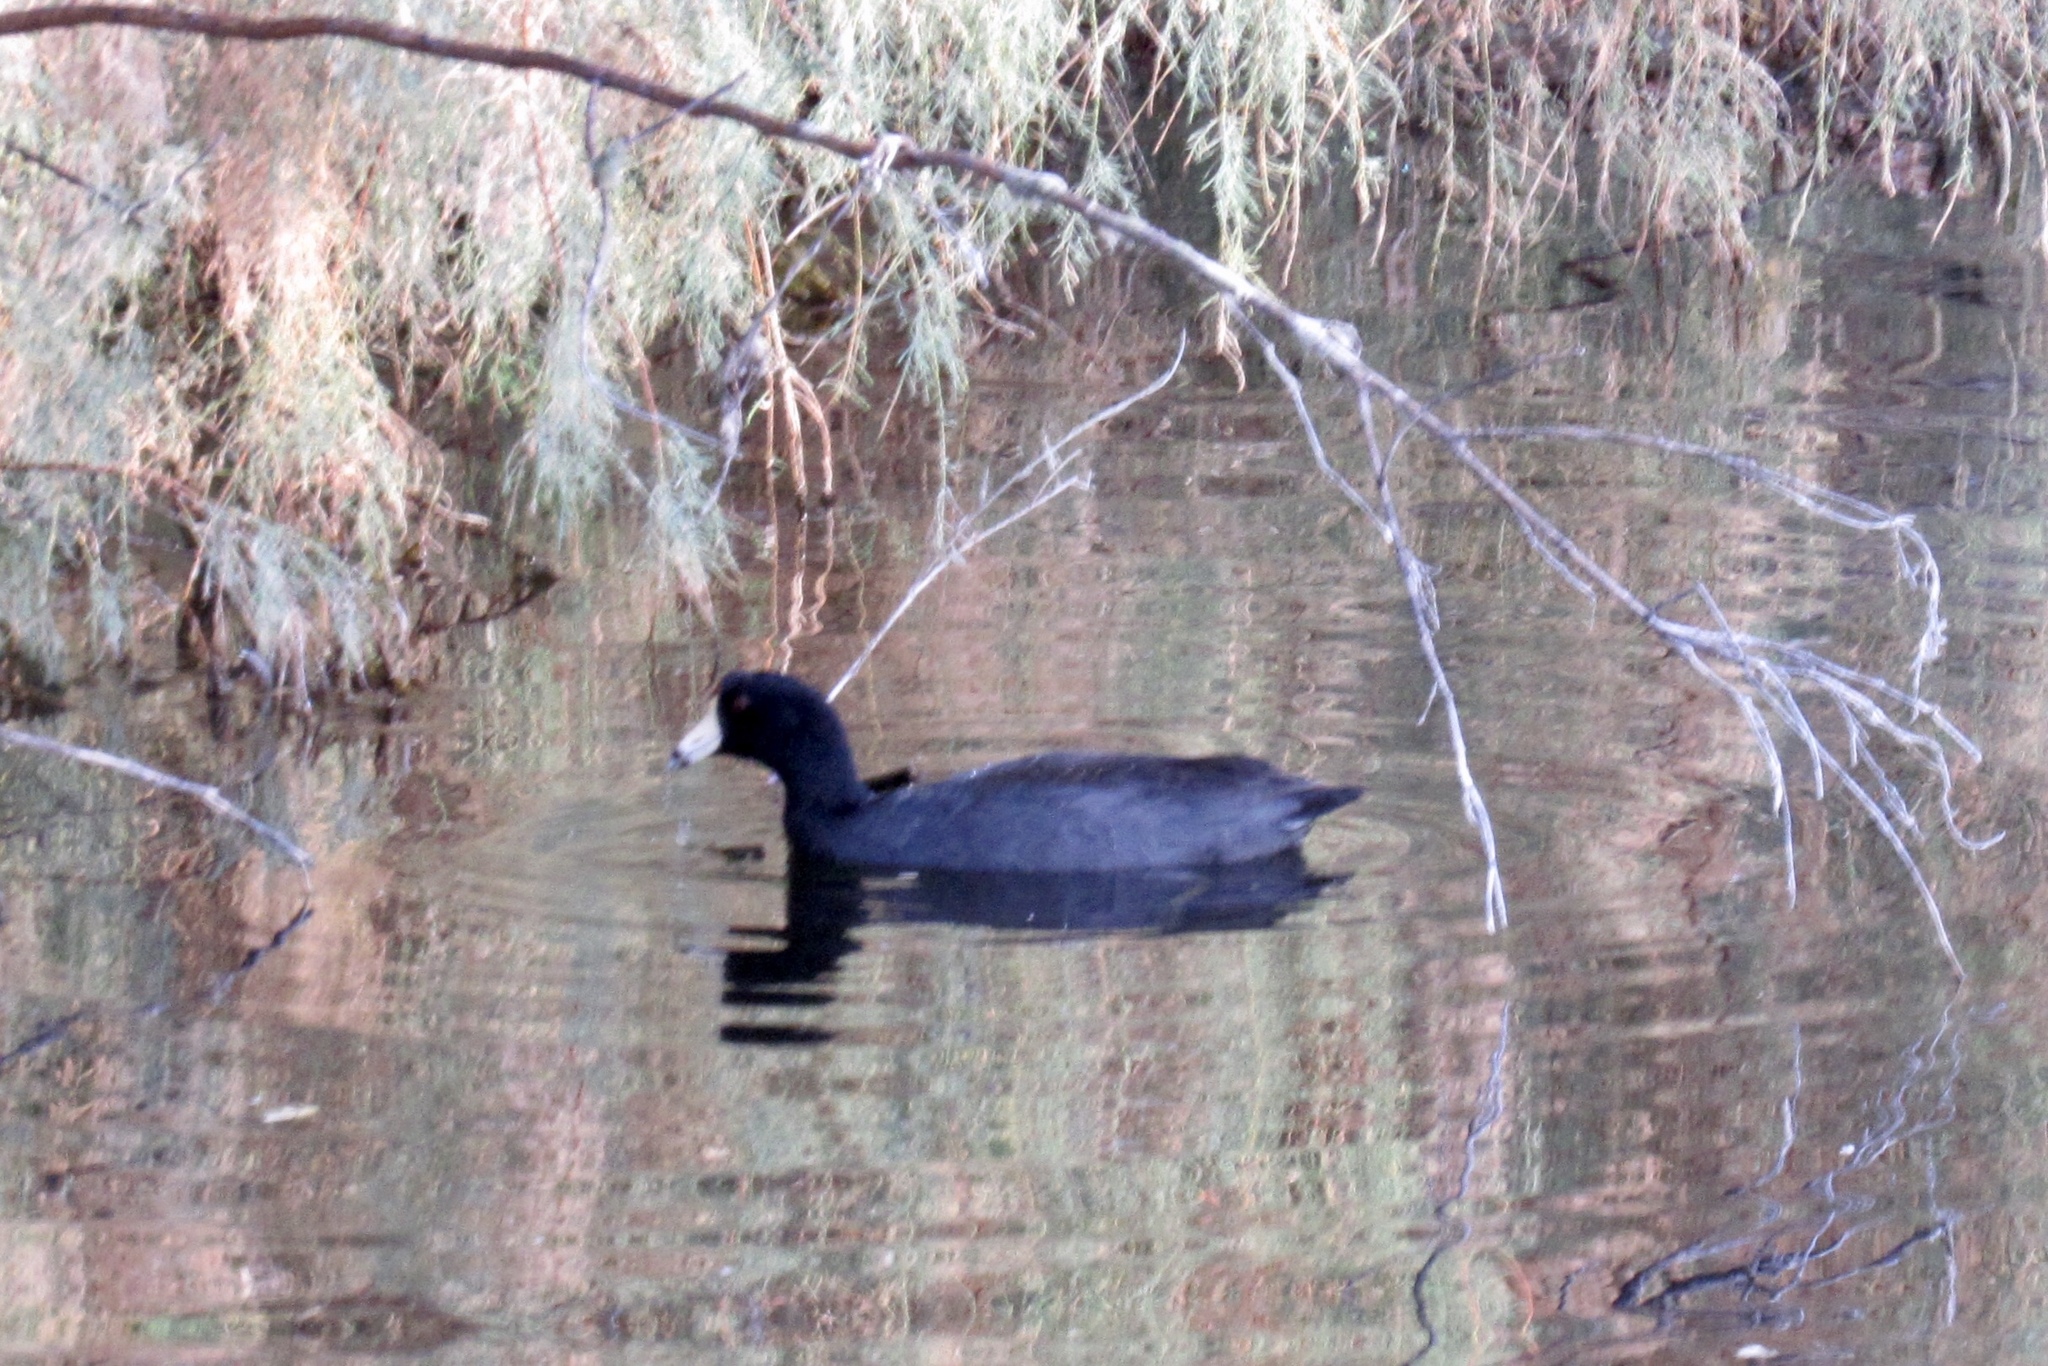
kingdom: Animalia
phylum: Chordata
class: Aves
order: Gruiformes
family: Rallidae
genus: Fulica
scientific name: Fulica americana
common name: American coot
